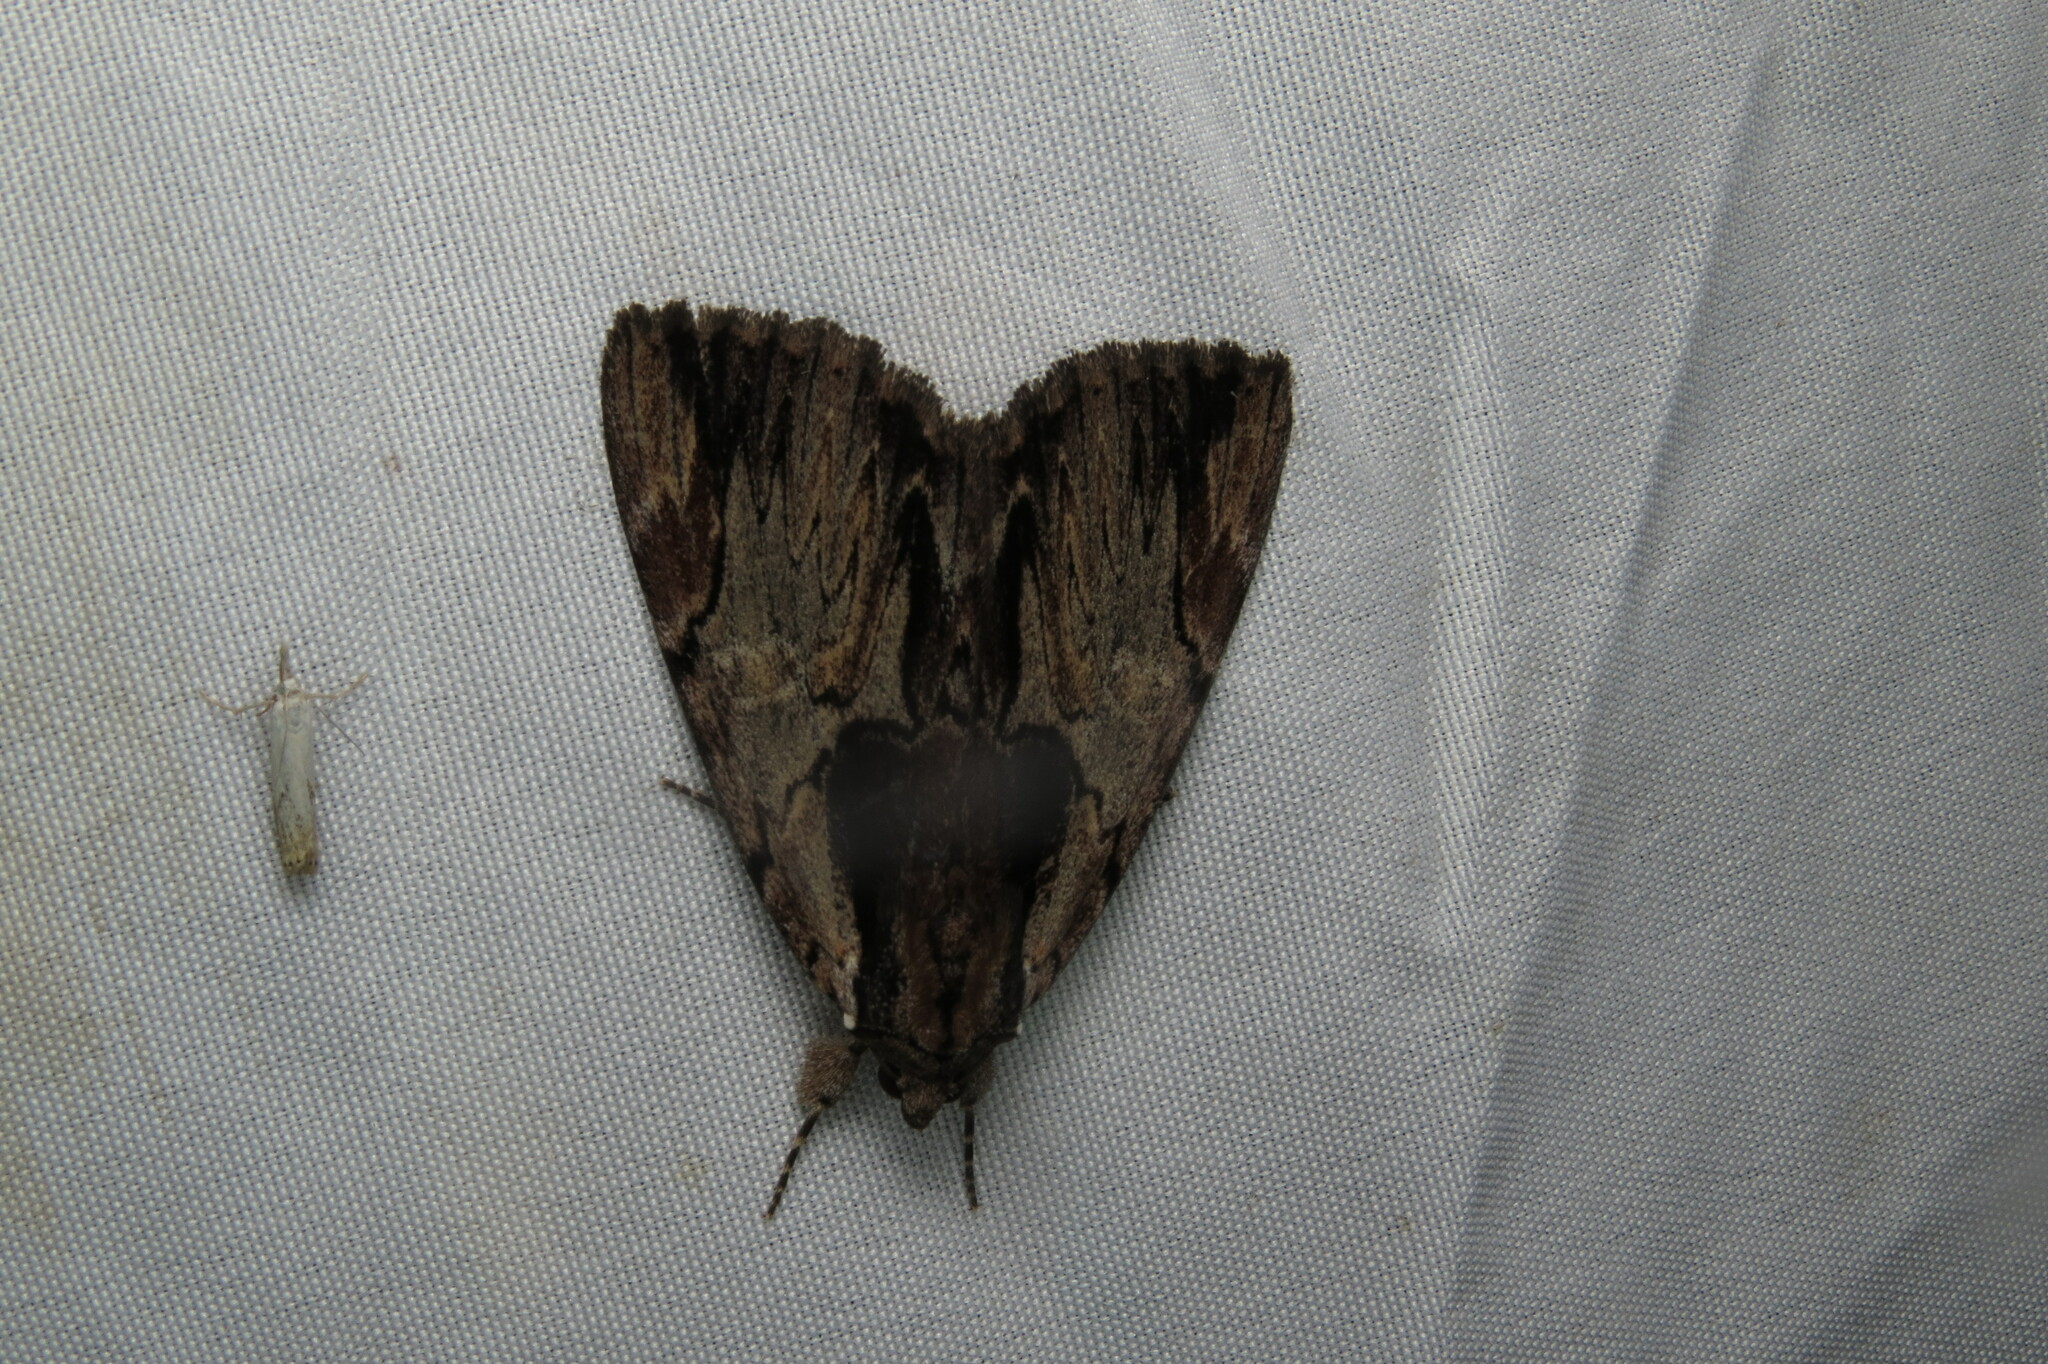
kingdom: Animalia
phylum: Arthropoda
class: Insecta
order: Lepidoptera
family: Erebidae
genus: Catocala
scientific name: Catocala ultronia
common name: Ultronia underwing
